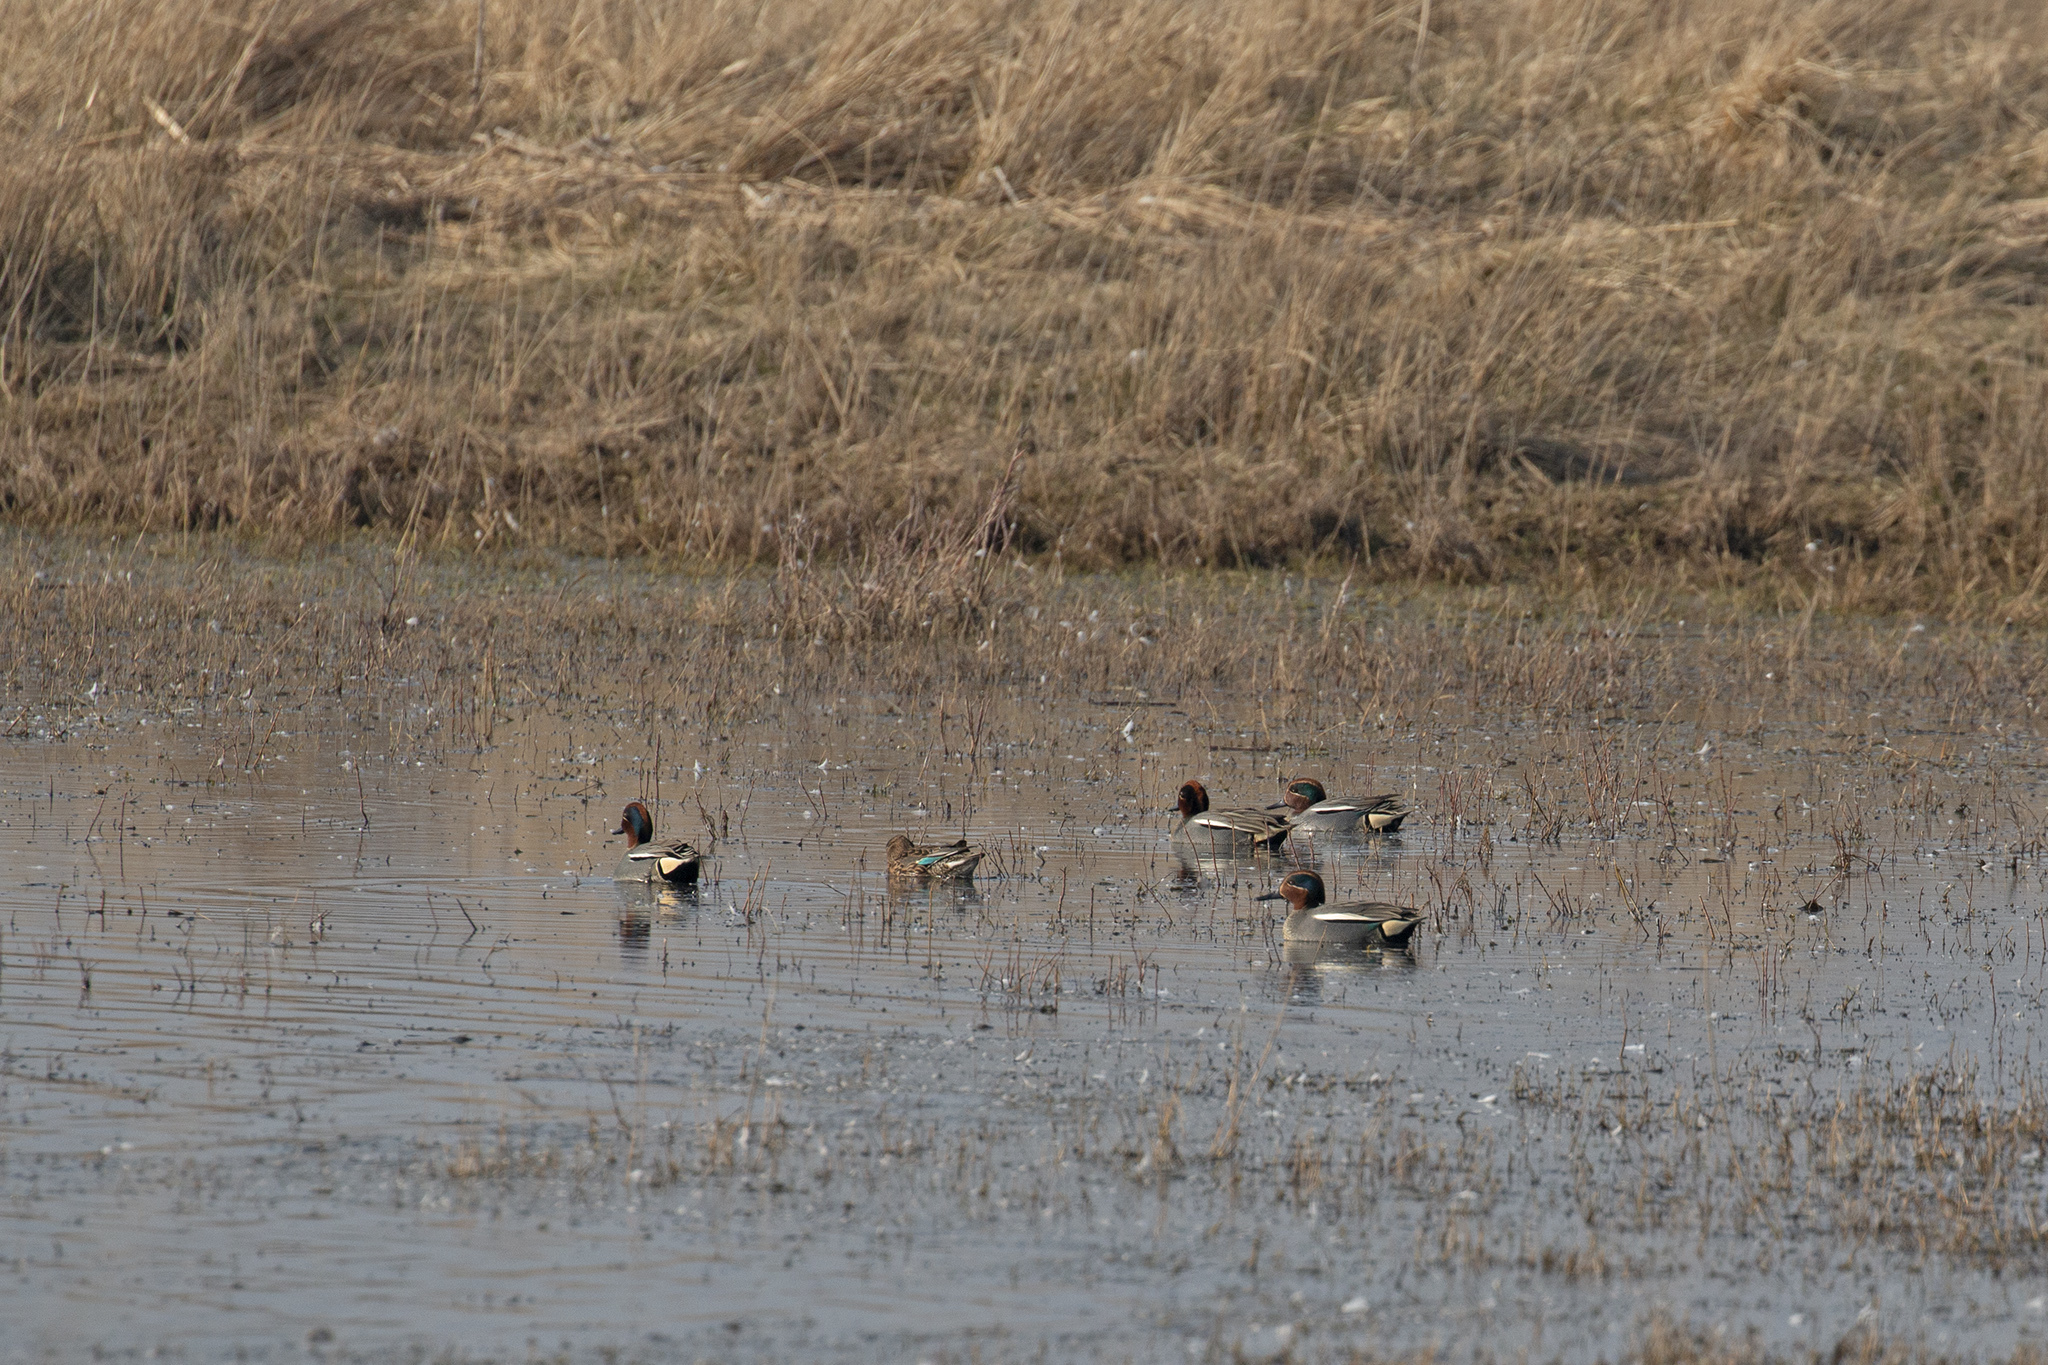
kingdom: Animalia
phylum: Chordata
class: Aves
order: Anseriformes
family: Anatidae
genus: Anas
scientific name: Anas crecca
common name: Eurasian teal
